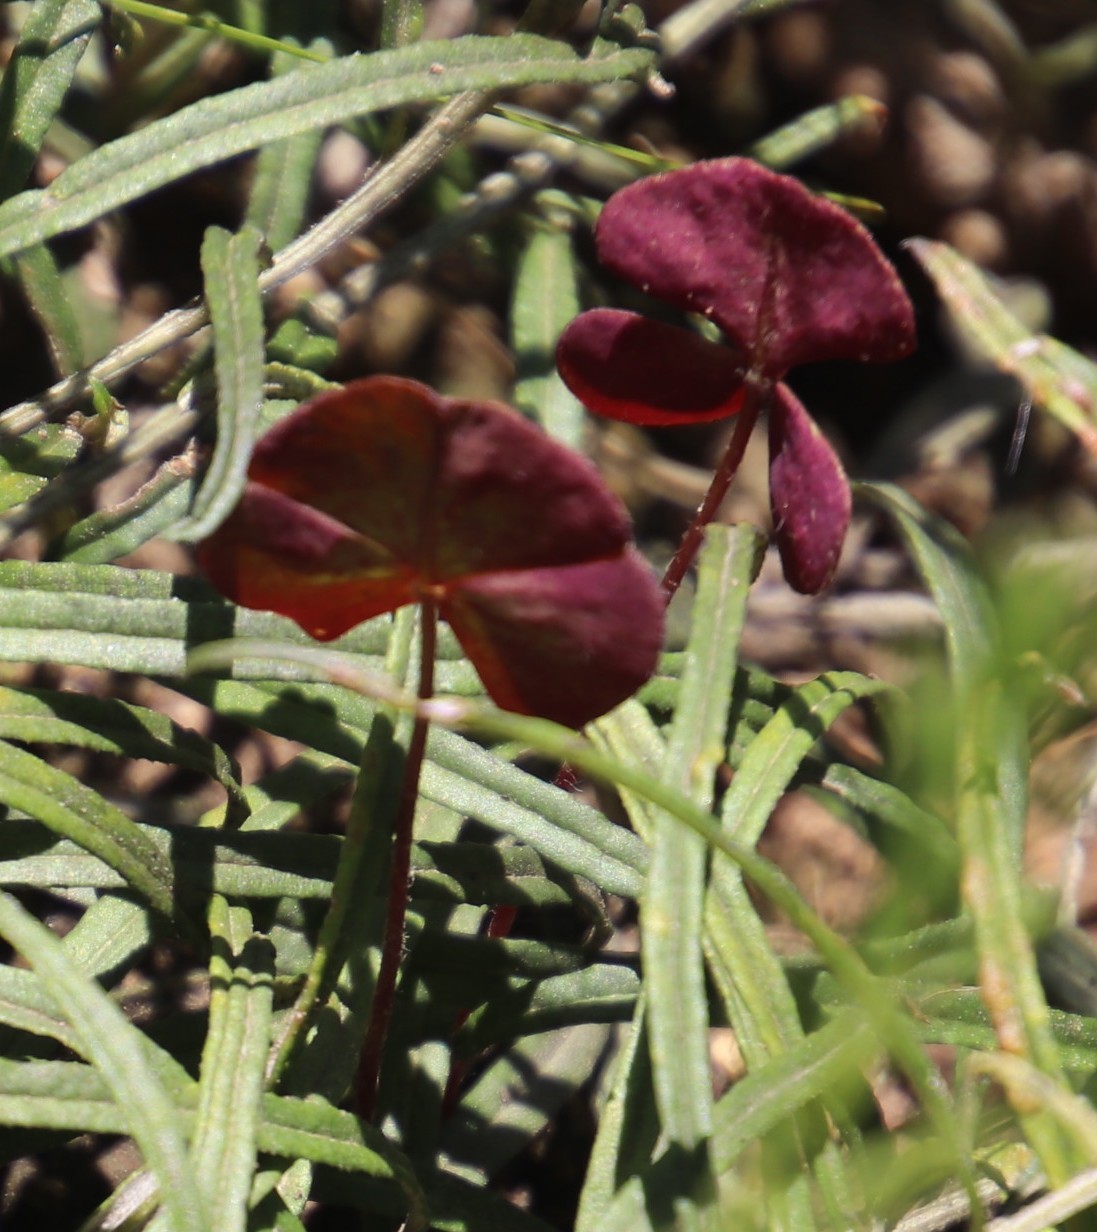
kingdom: Plantae
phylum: Tracheophyta
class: Magnoliopsida
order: Oxalidales
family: Oxalidaceae
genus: Oxalis
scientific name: Oxalis obliquifolia
